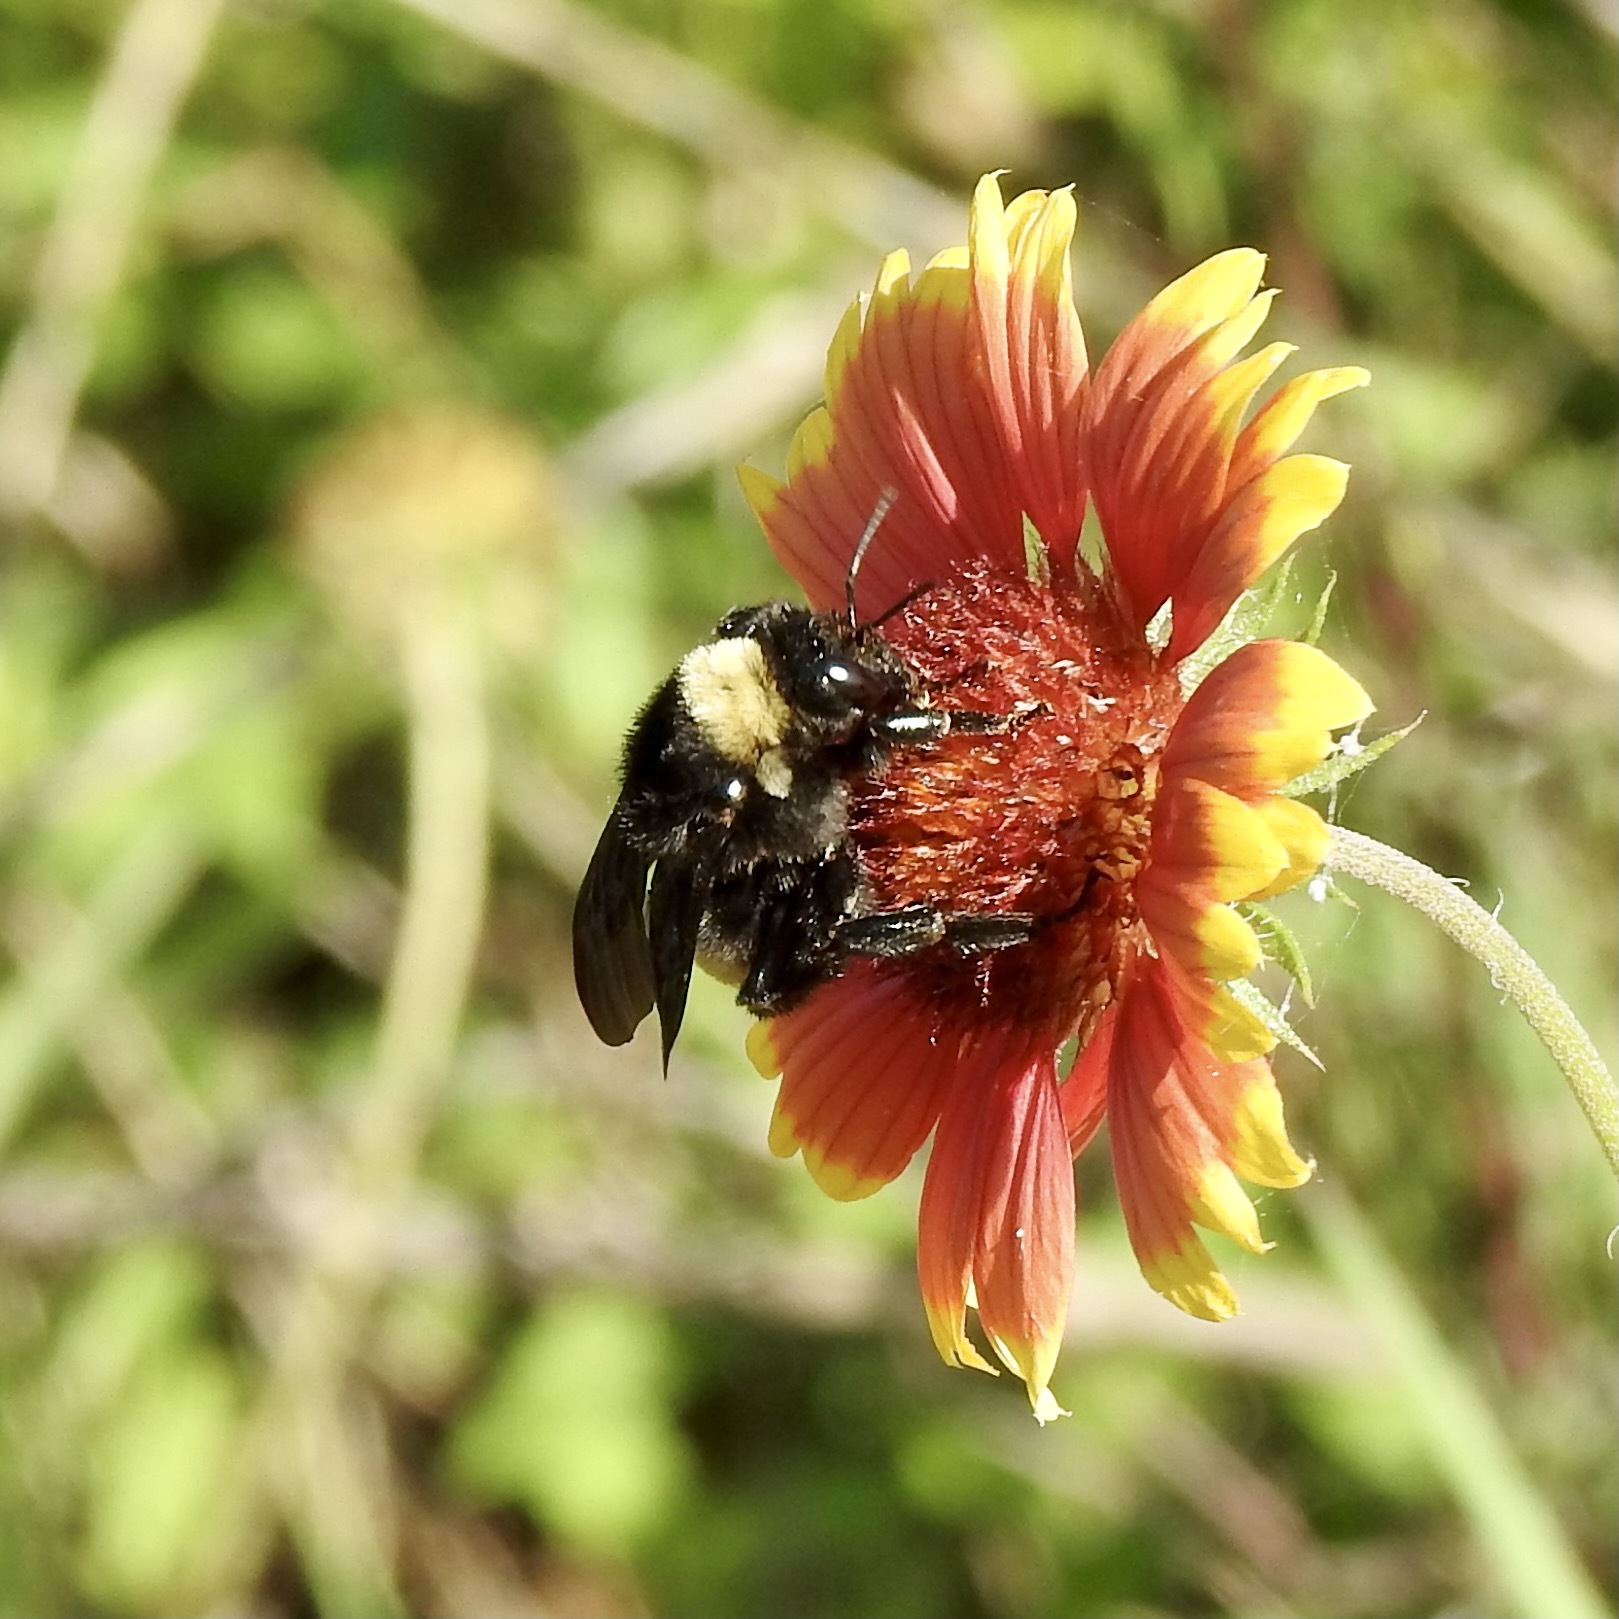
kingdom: Animalia
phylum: Arthropoda
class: Insecta
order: Hymenoptera
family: Apidae
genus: Bombus
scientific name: Bombus pensylvanicus
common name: Bumble bee
